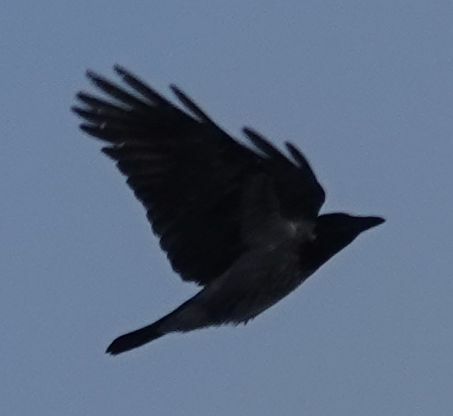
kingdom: Animalia
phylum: Chordata
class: Aves
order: Passeriformes
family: Corvidae
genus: Corvus
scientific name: Corvus cornix
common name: Hooded crow
